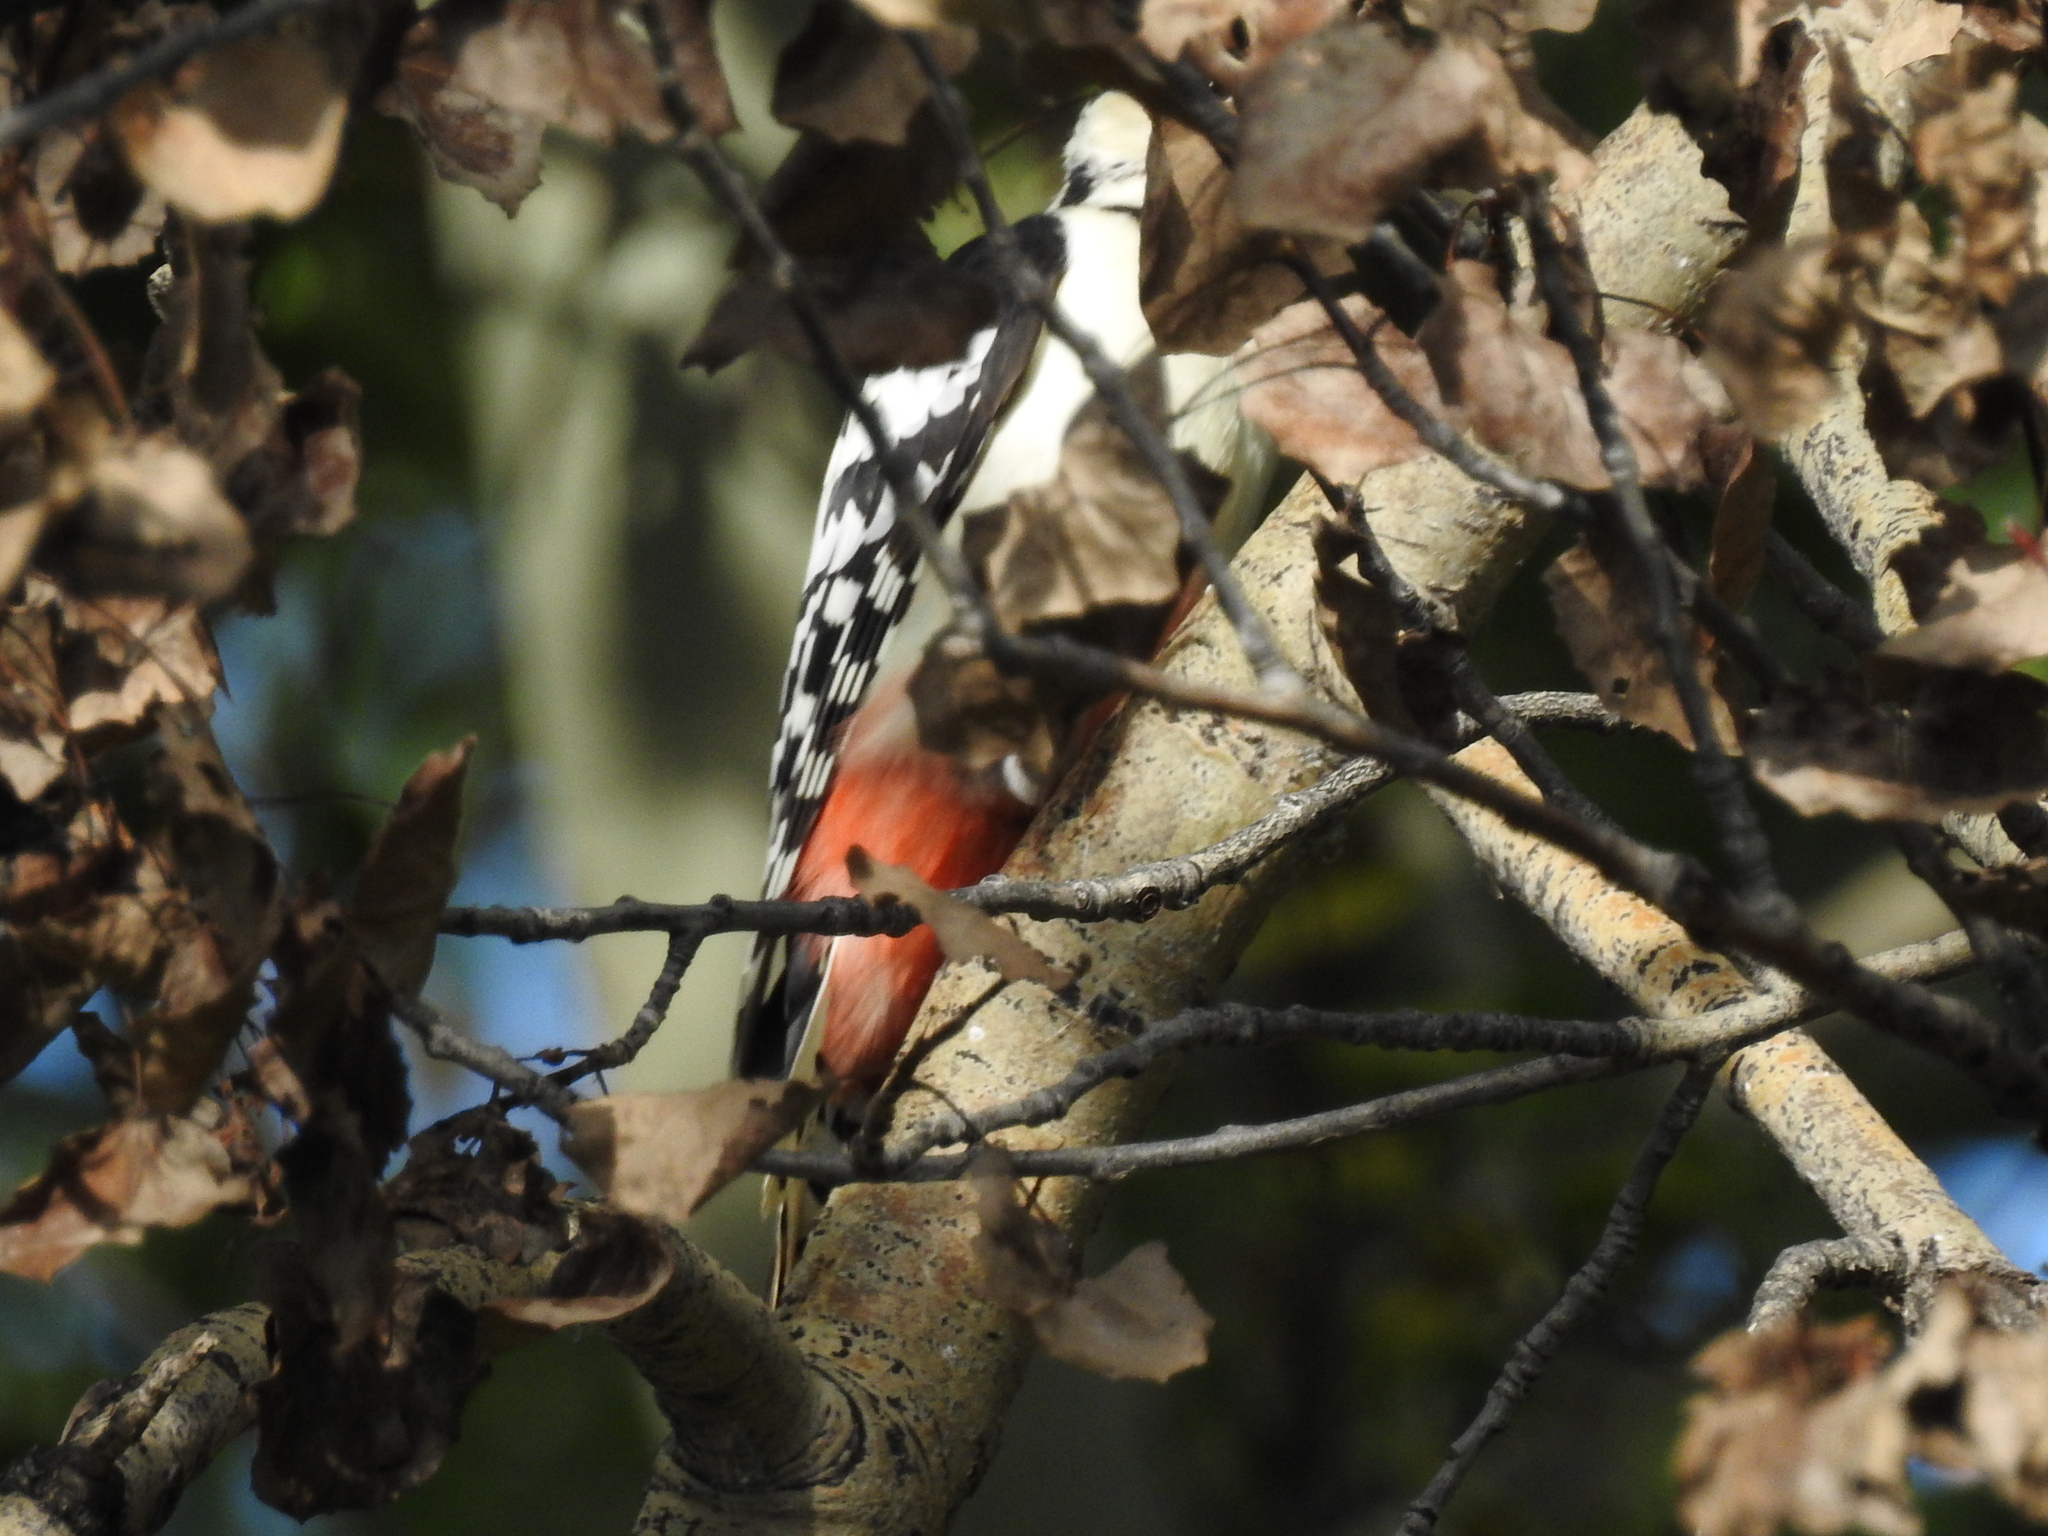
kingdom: Animalia
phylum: Chordata
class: Aves
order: Piciformes
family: Picidae
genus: Dendrocopos
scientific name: Dendrocopos leucotos
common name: White-backed woodpecker
